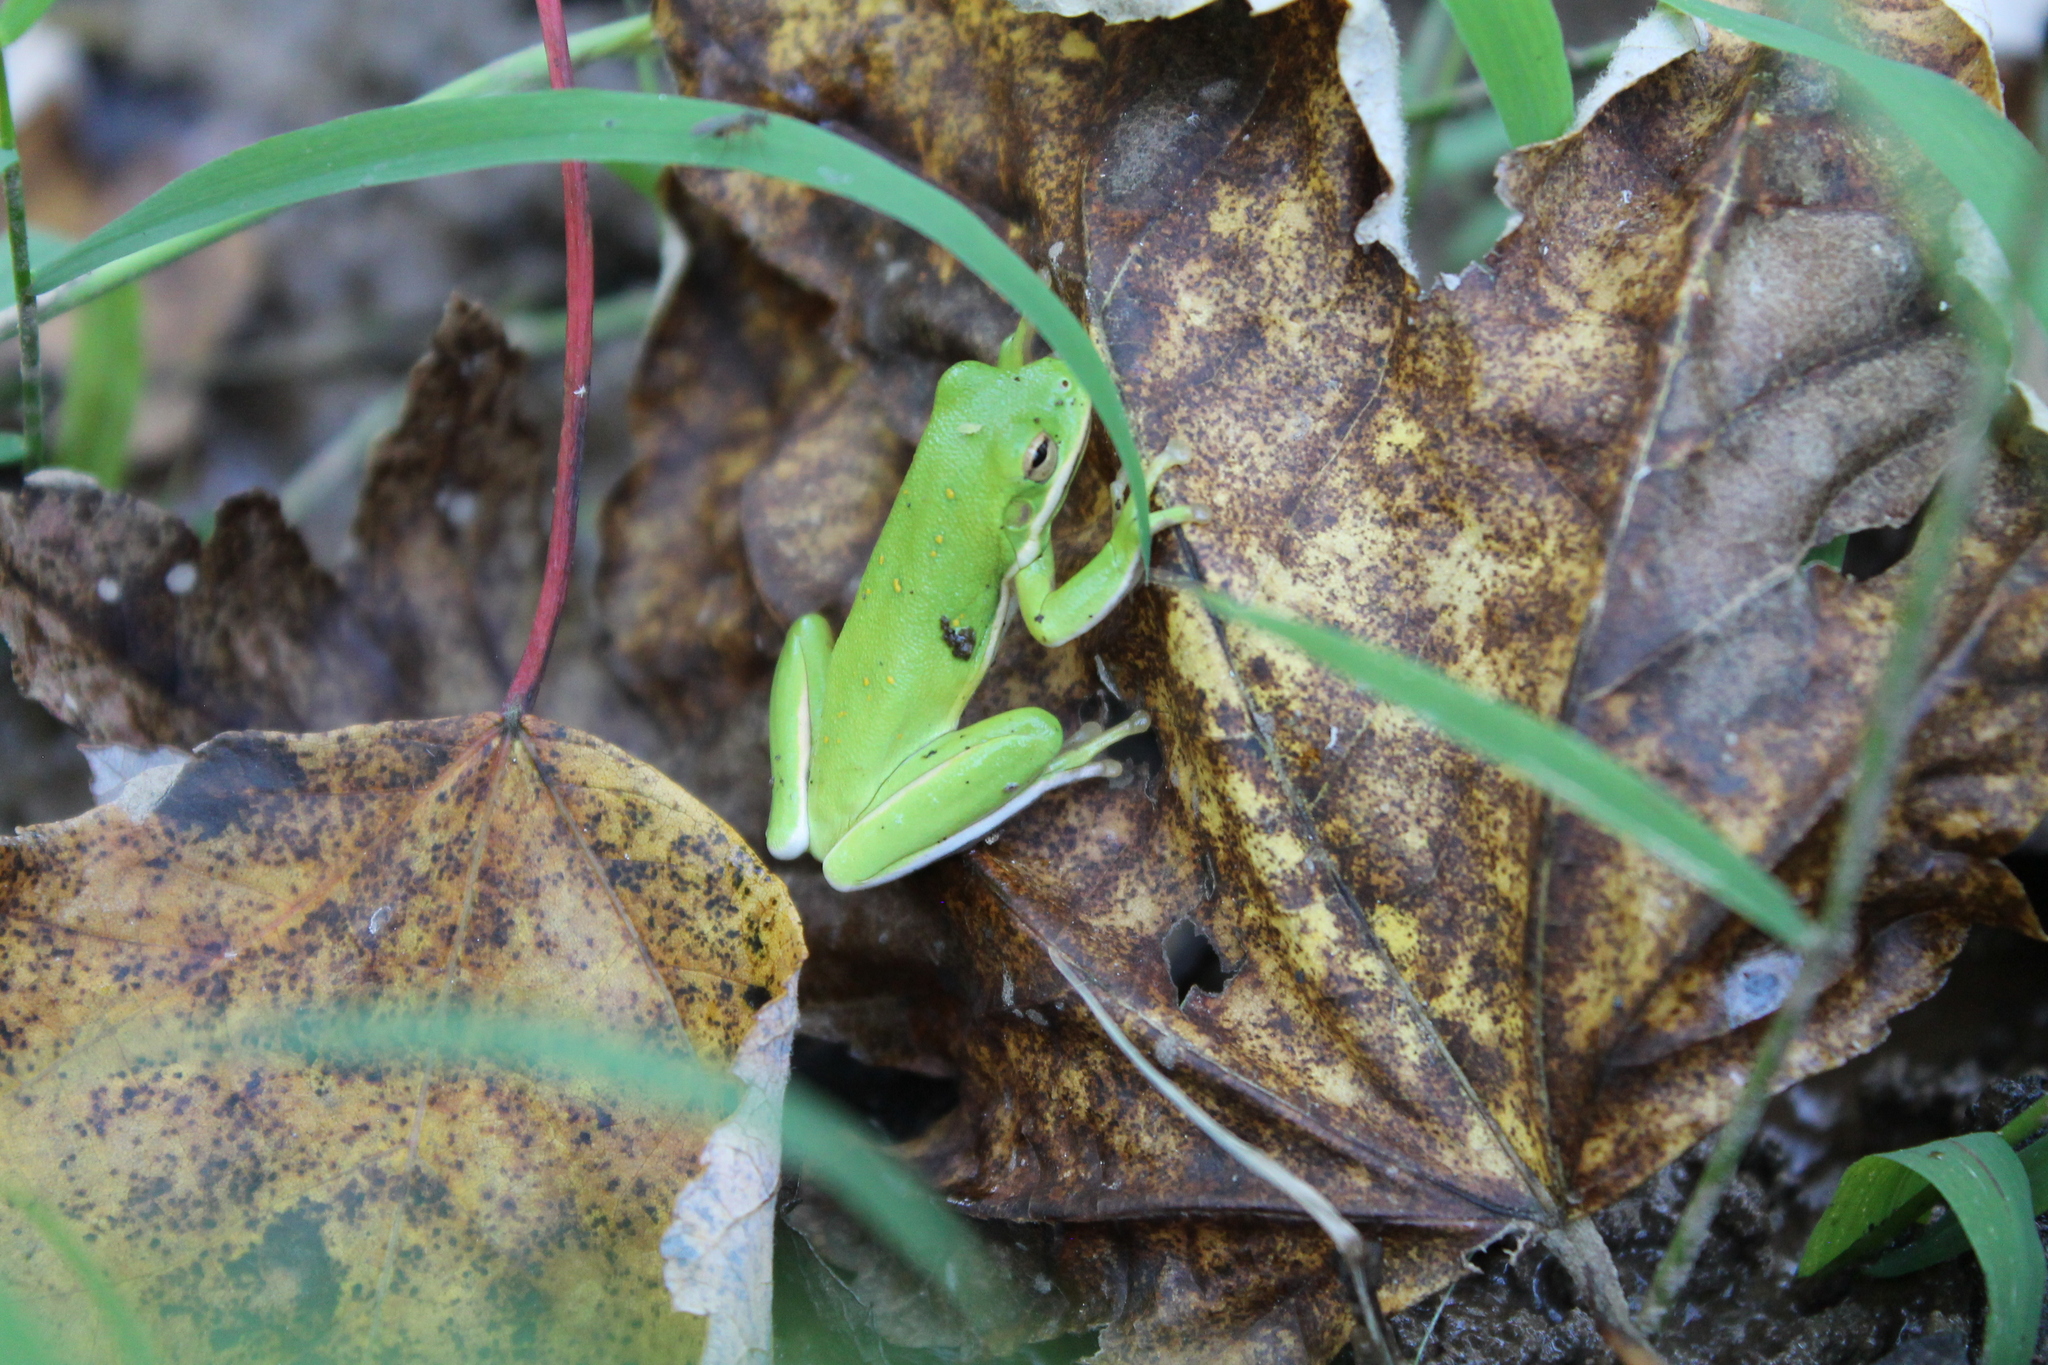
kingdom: Animalia
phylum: Chordata
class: Amphibia
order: Anura
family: Hylidae
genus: Dryophytes
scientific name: Dryophytes cinereus
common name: Green treefrog
